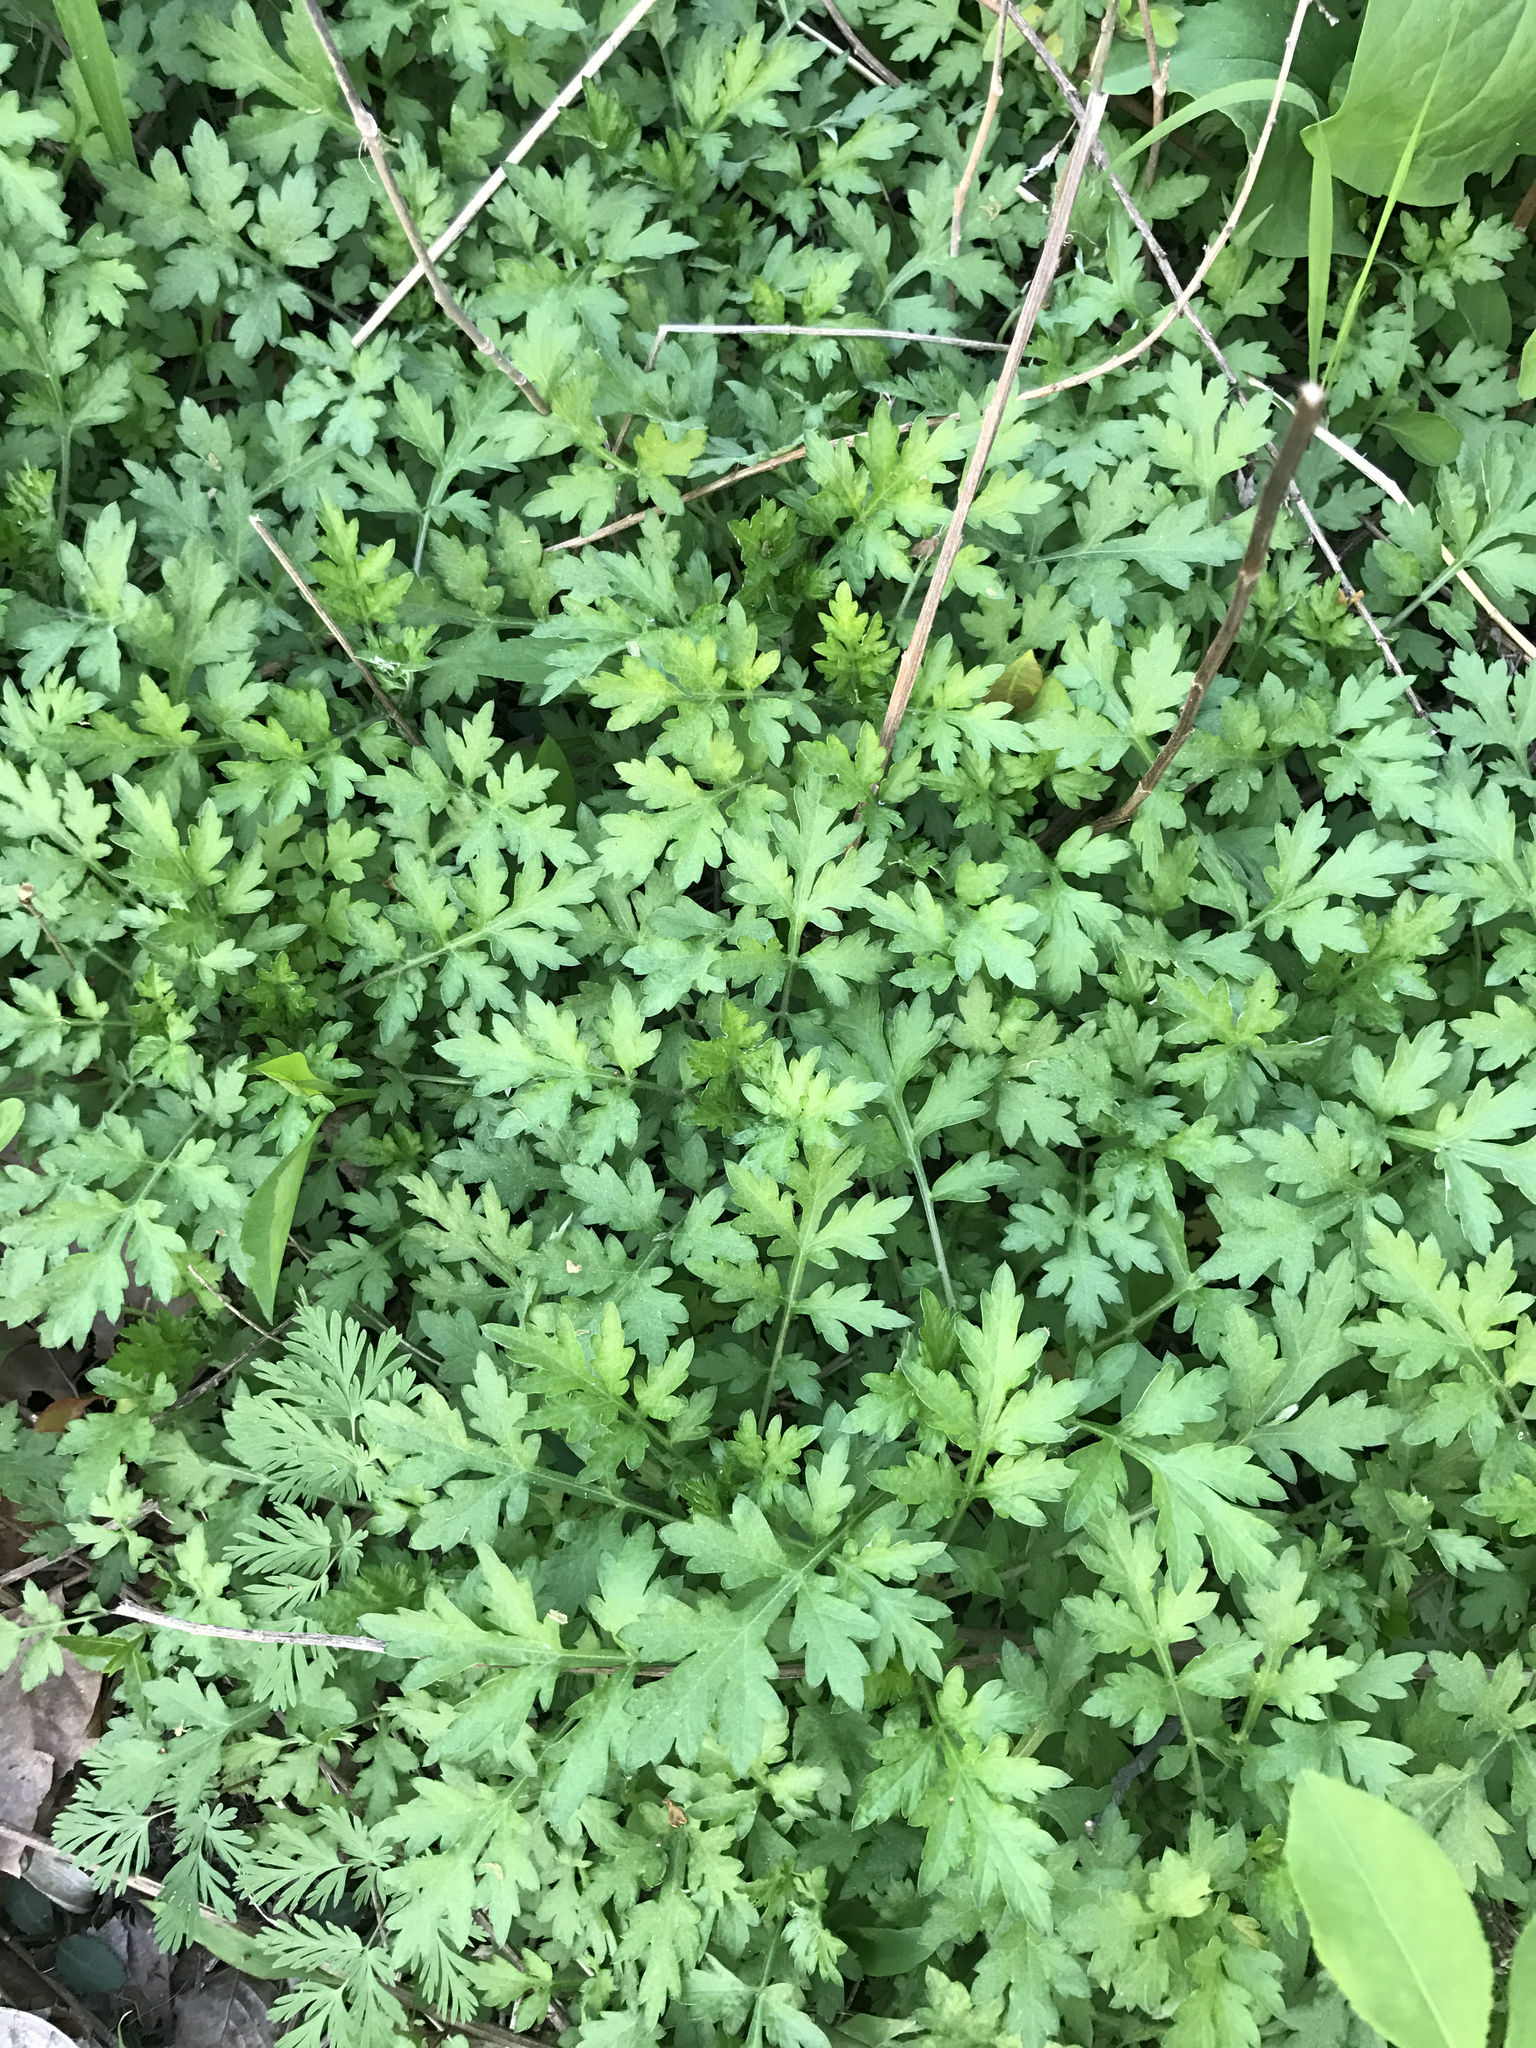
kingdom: Plantae
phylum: Tracheophyta
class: Magnoliopsida
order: Asterales
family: Asteraceae
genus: Artemisia
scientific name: Artemisia vulgaris
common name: Mugwort
